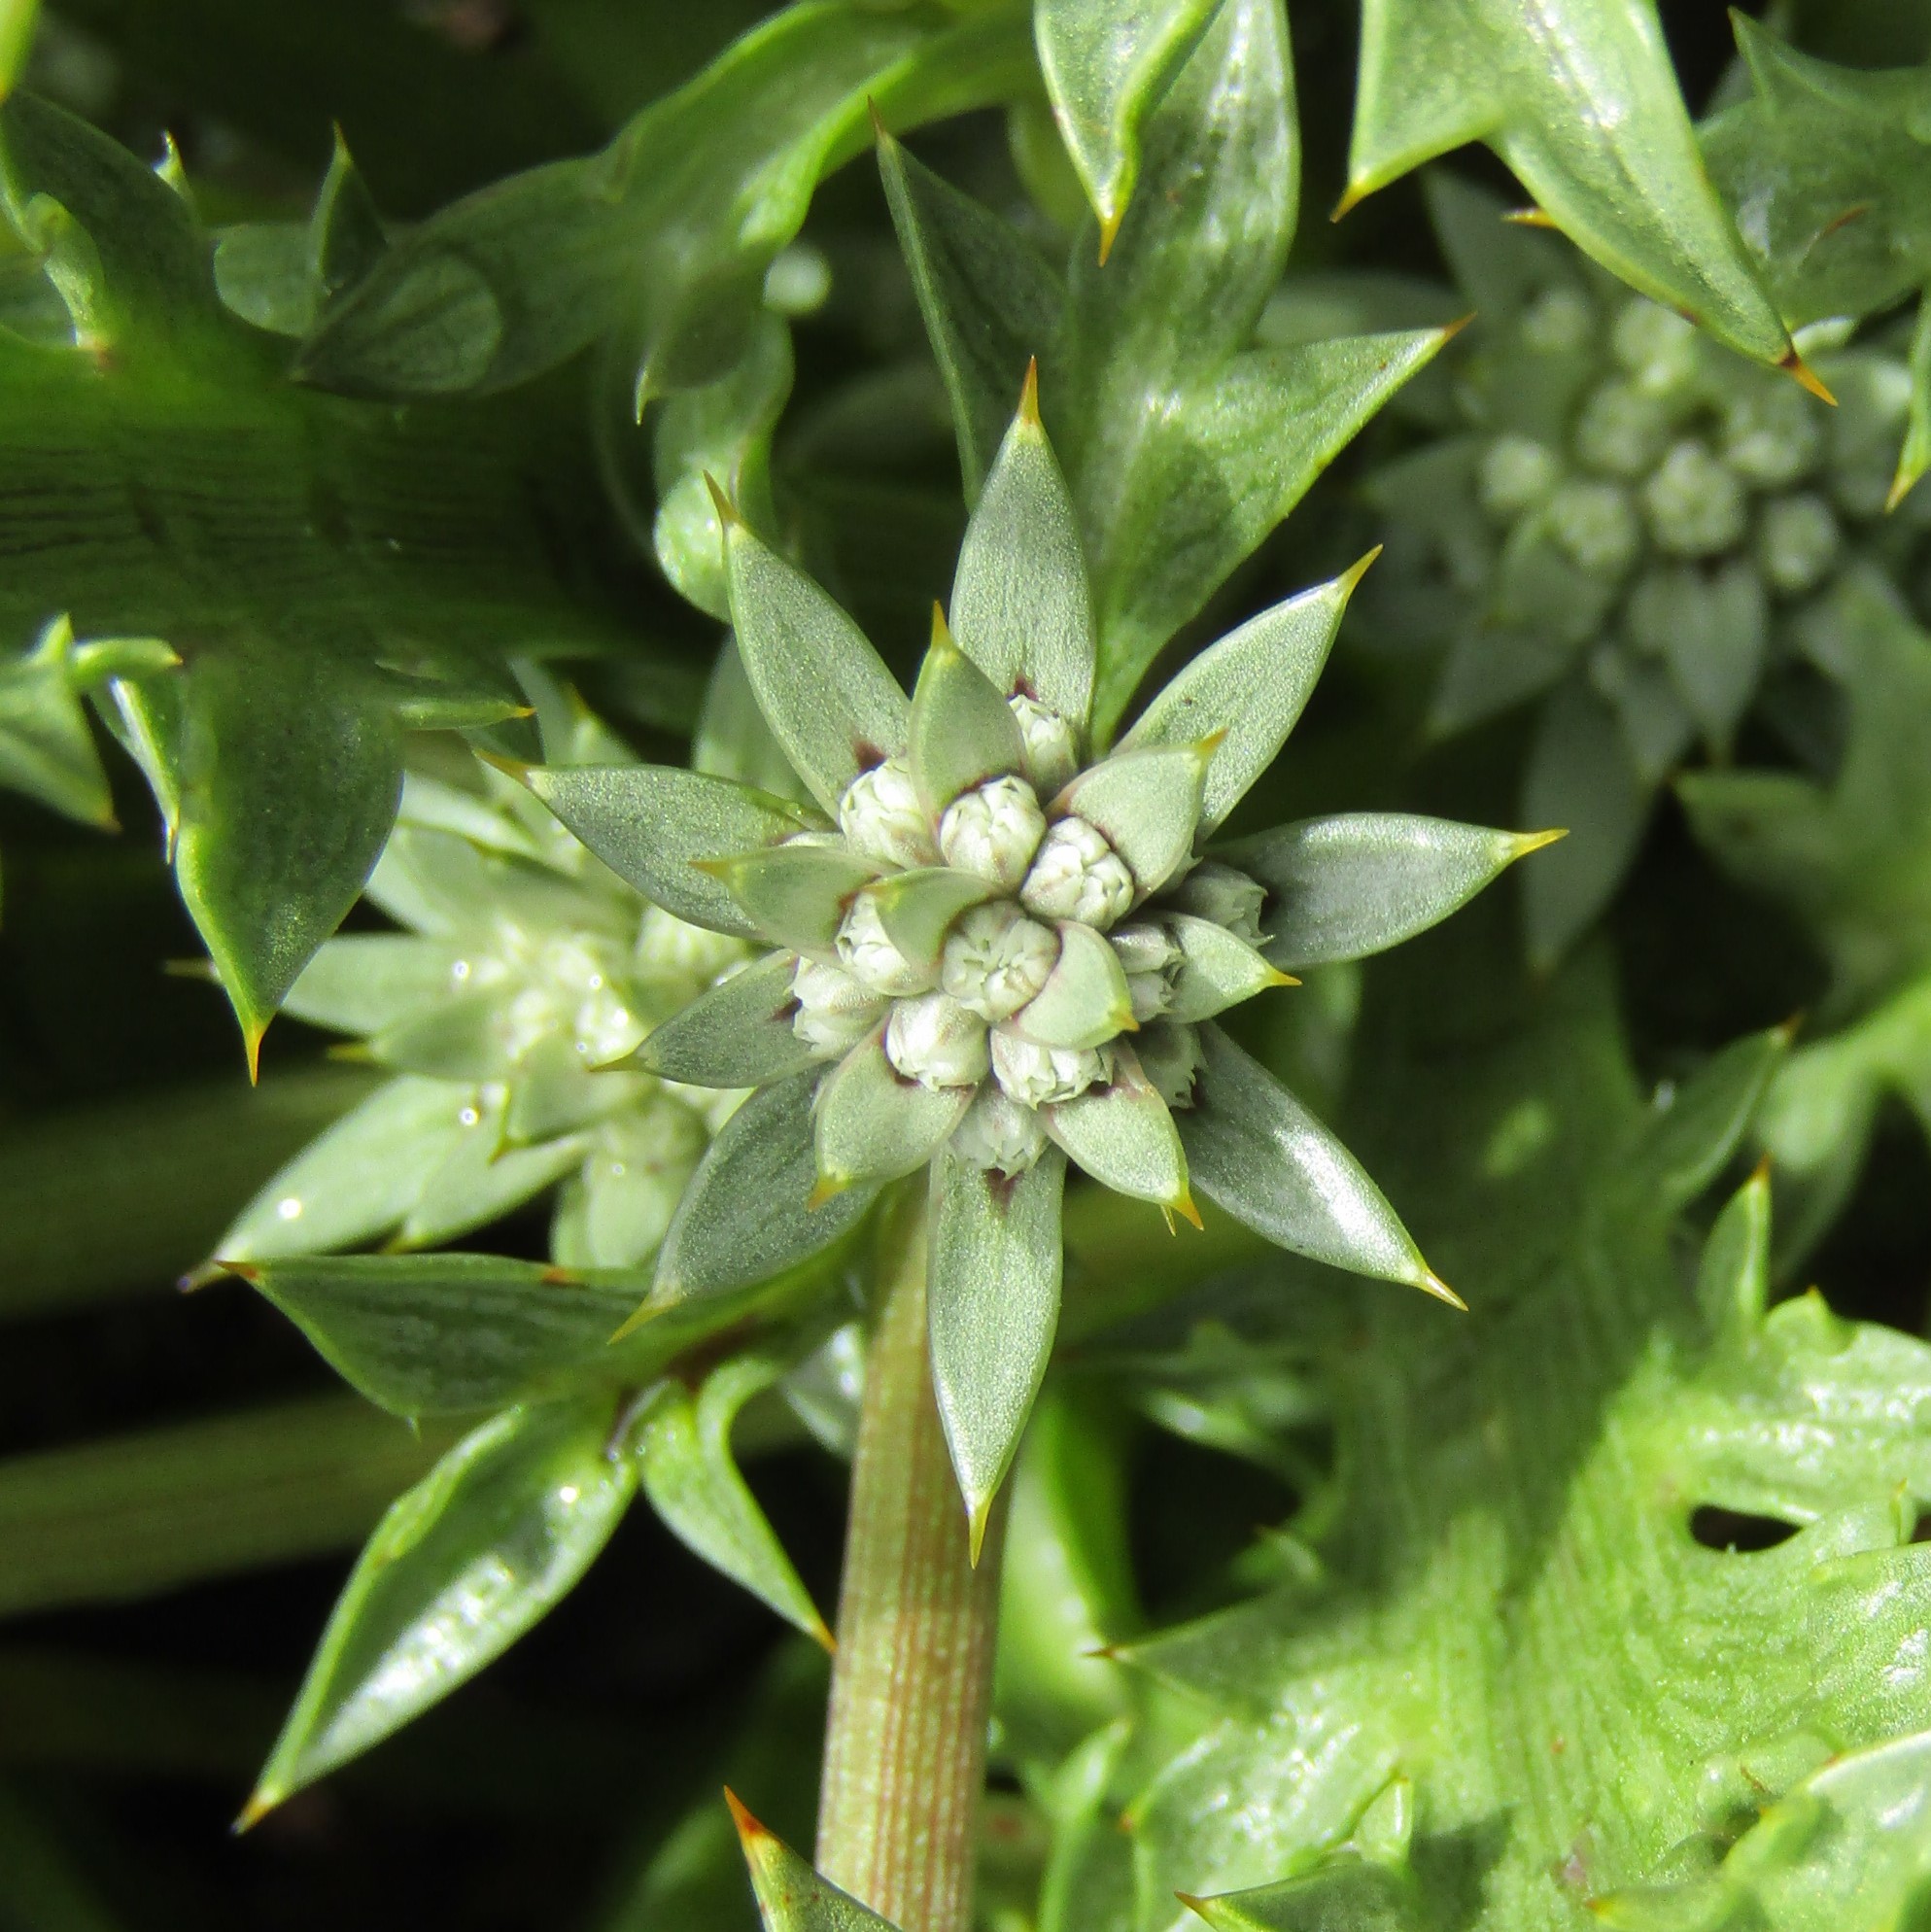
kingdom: Plantae
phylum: Tracheophyta
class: Magnoliopsida
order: Apiales
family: Apiaceae
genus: Eryngium
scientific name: Eryngium vesiculosum
